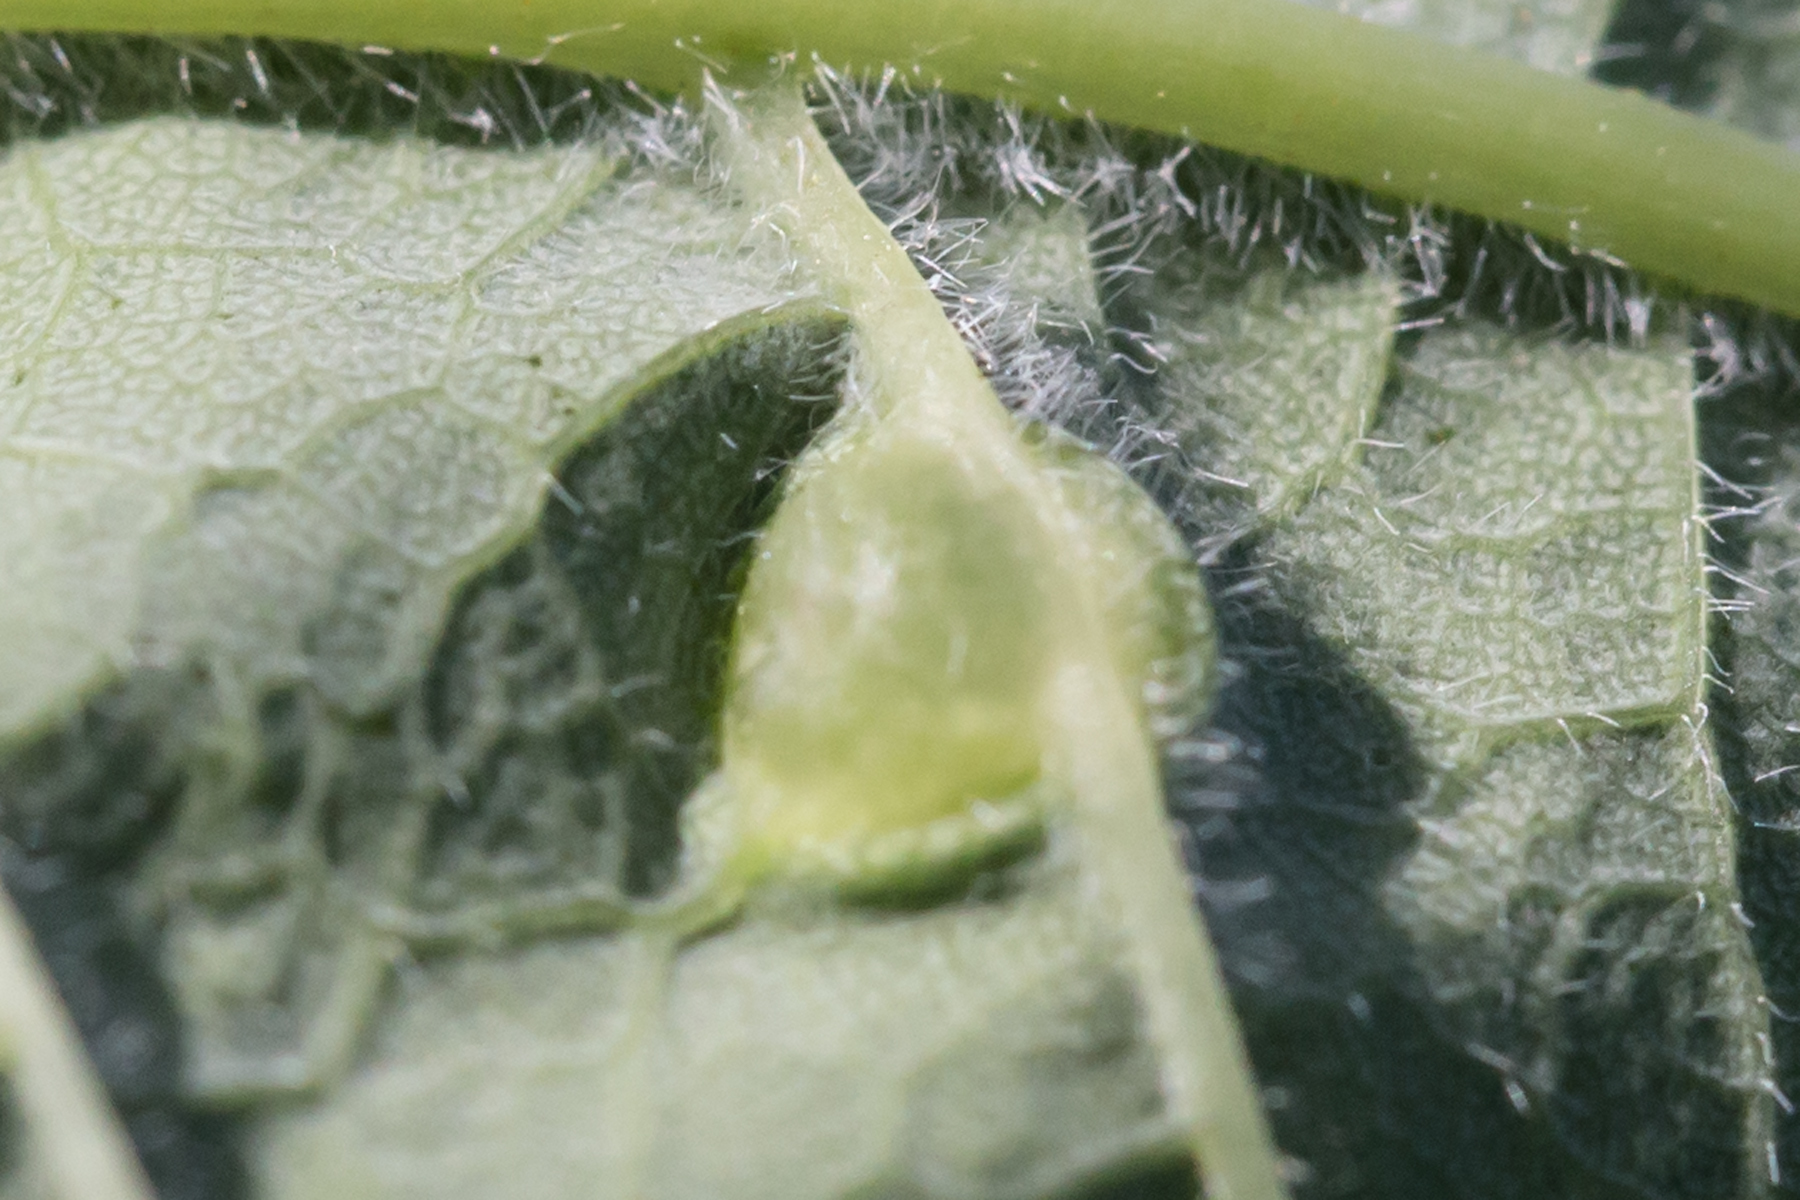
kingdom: Animalia
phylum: Arthropoda
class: Insecta
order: Diptera
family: Cecidomyiidae
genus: Dasineura
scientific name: Dasineura pellex
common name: Ash bullet gall midge
